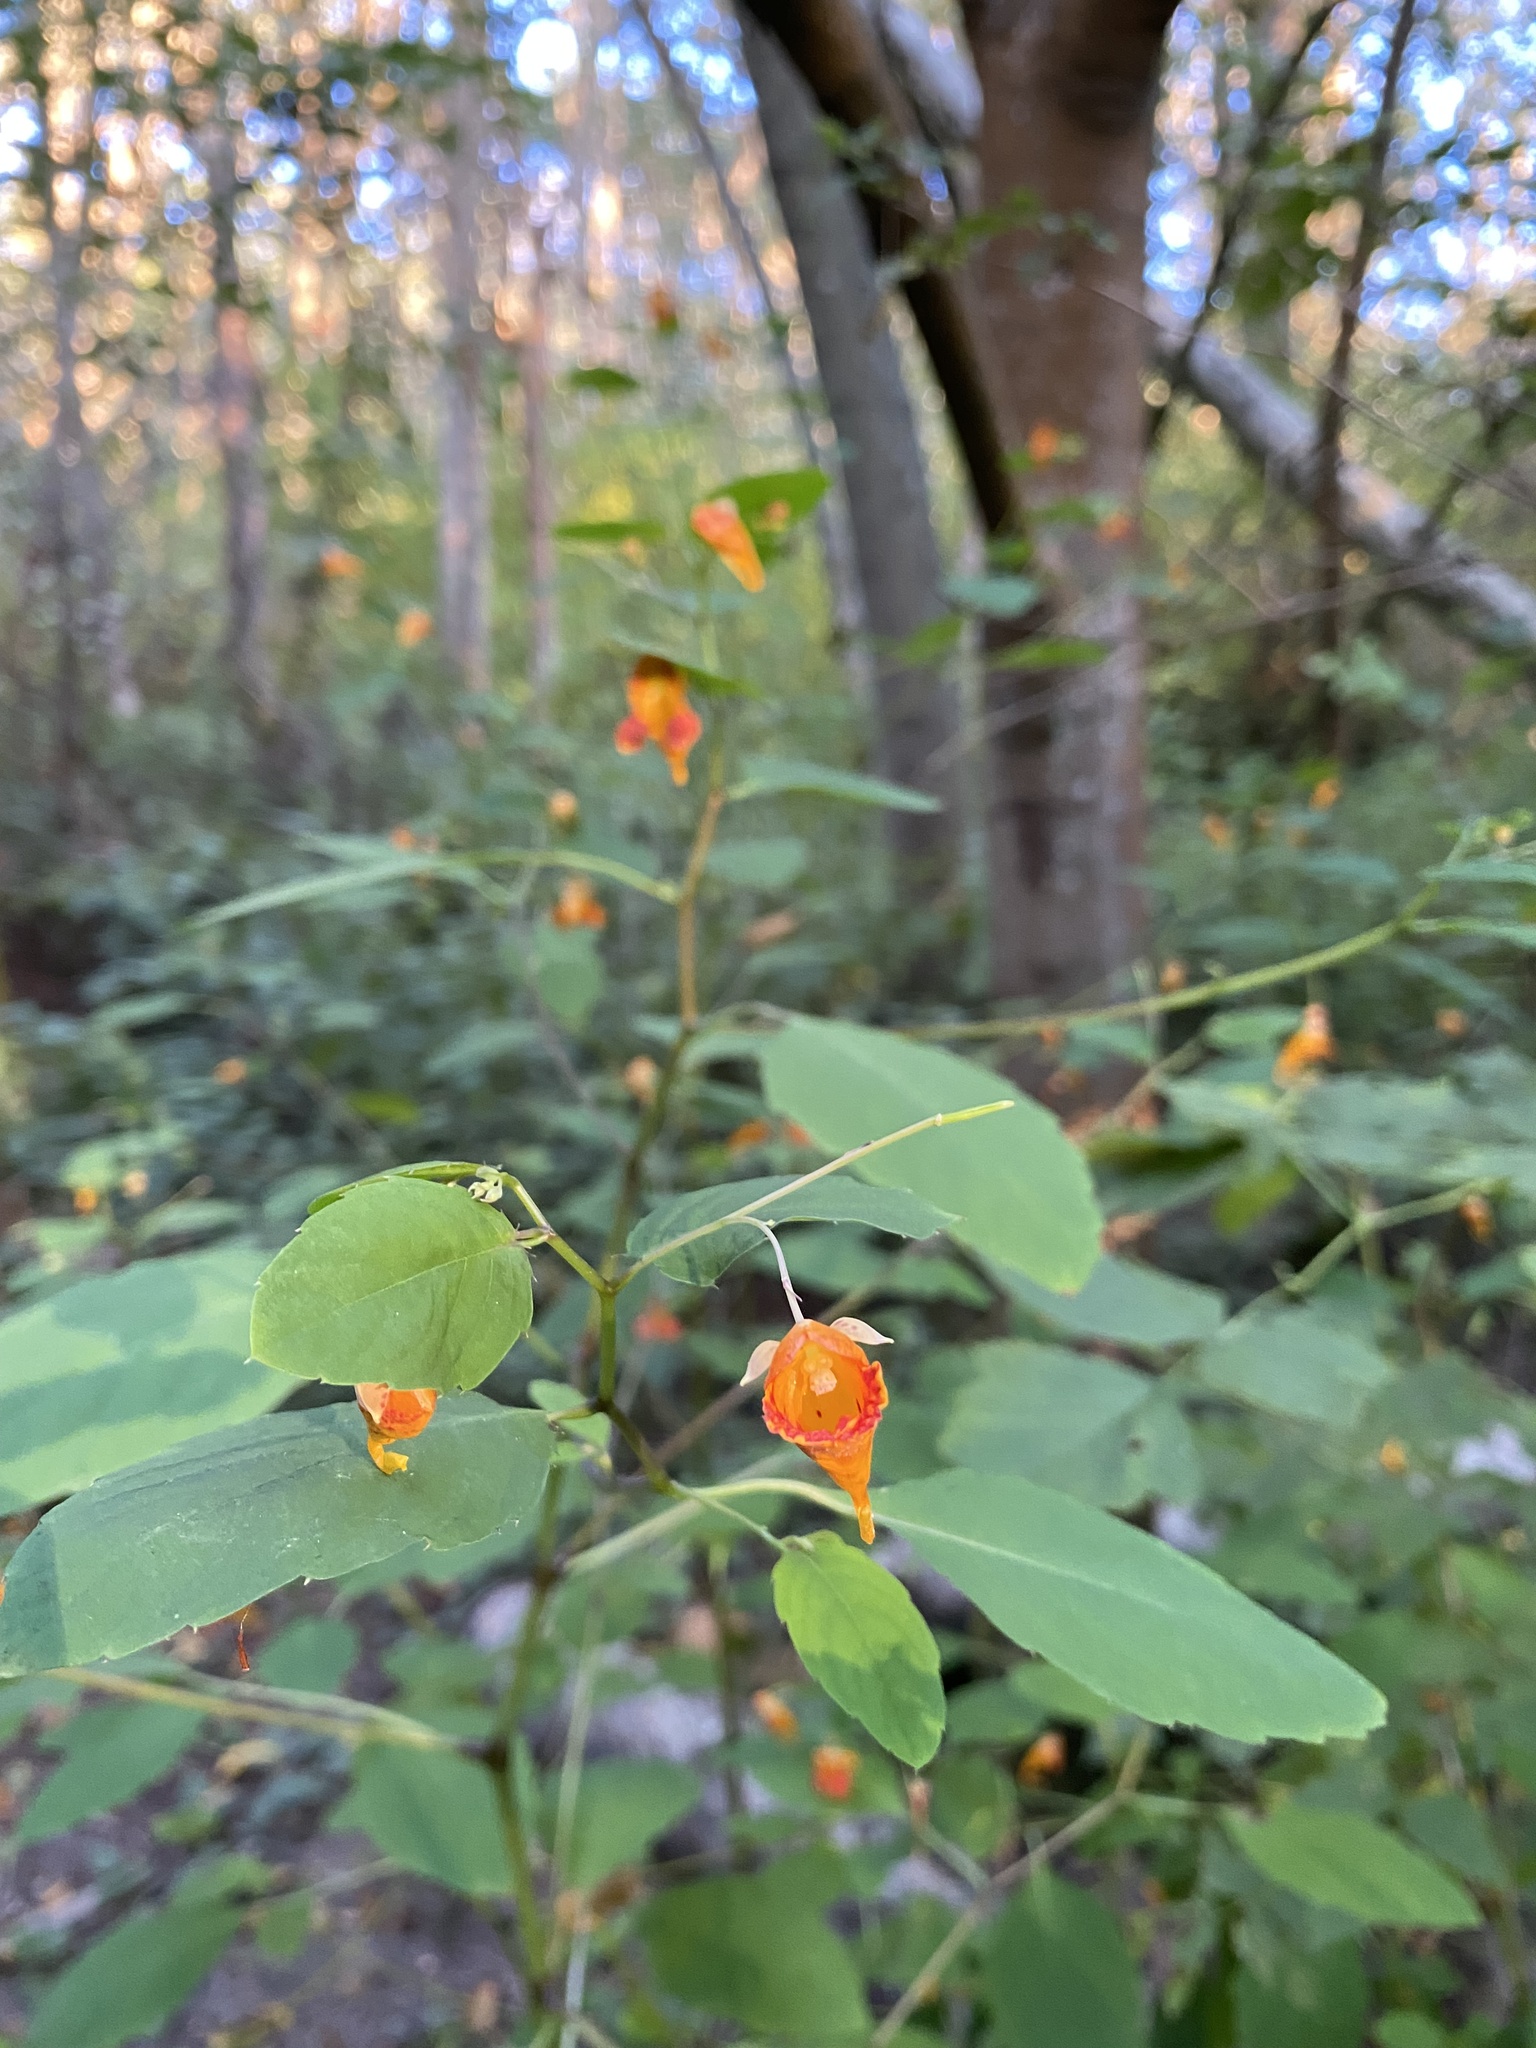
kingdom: Plantae
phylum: Tracheophyta
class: Magnoliopsida
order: Ericales
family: Balsaminaceae
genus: Impatiens
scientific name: Impatiens capensis
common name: Orange balsam
